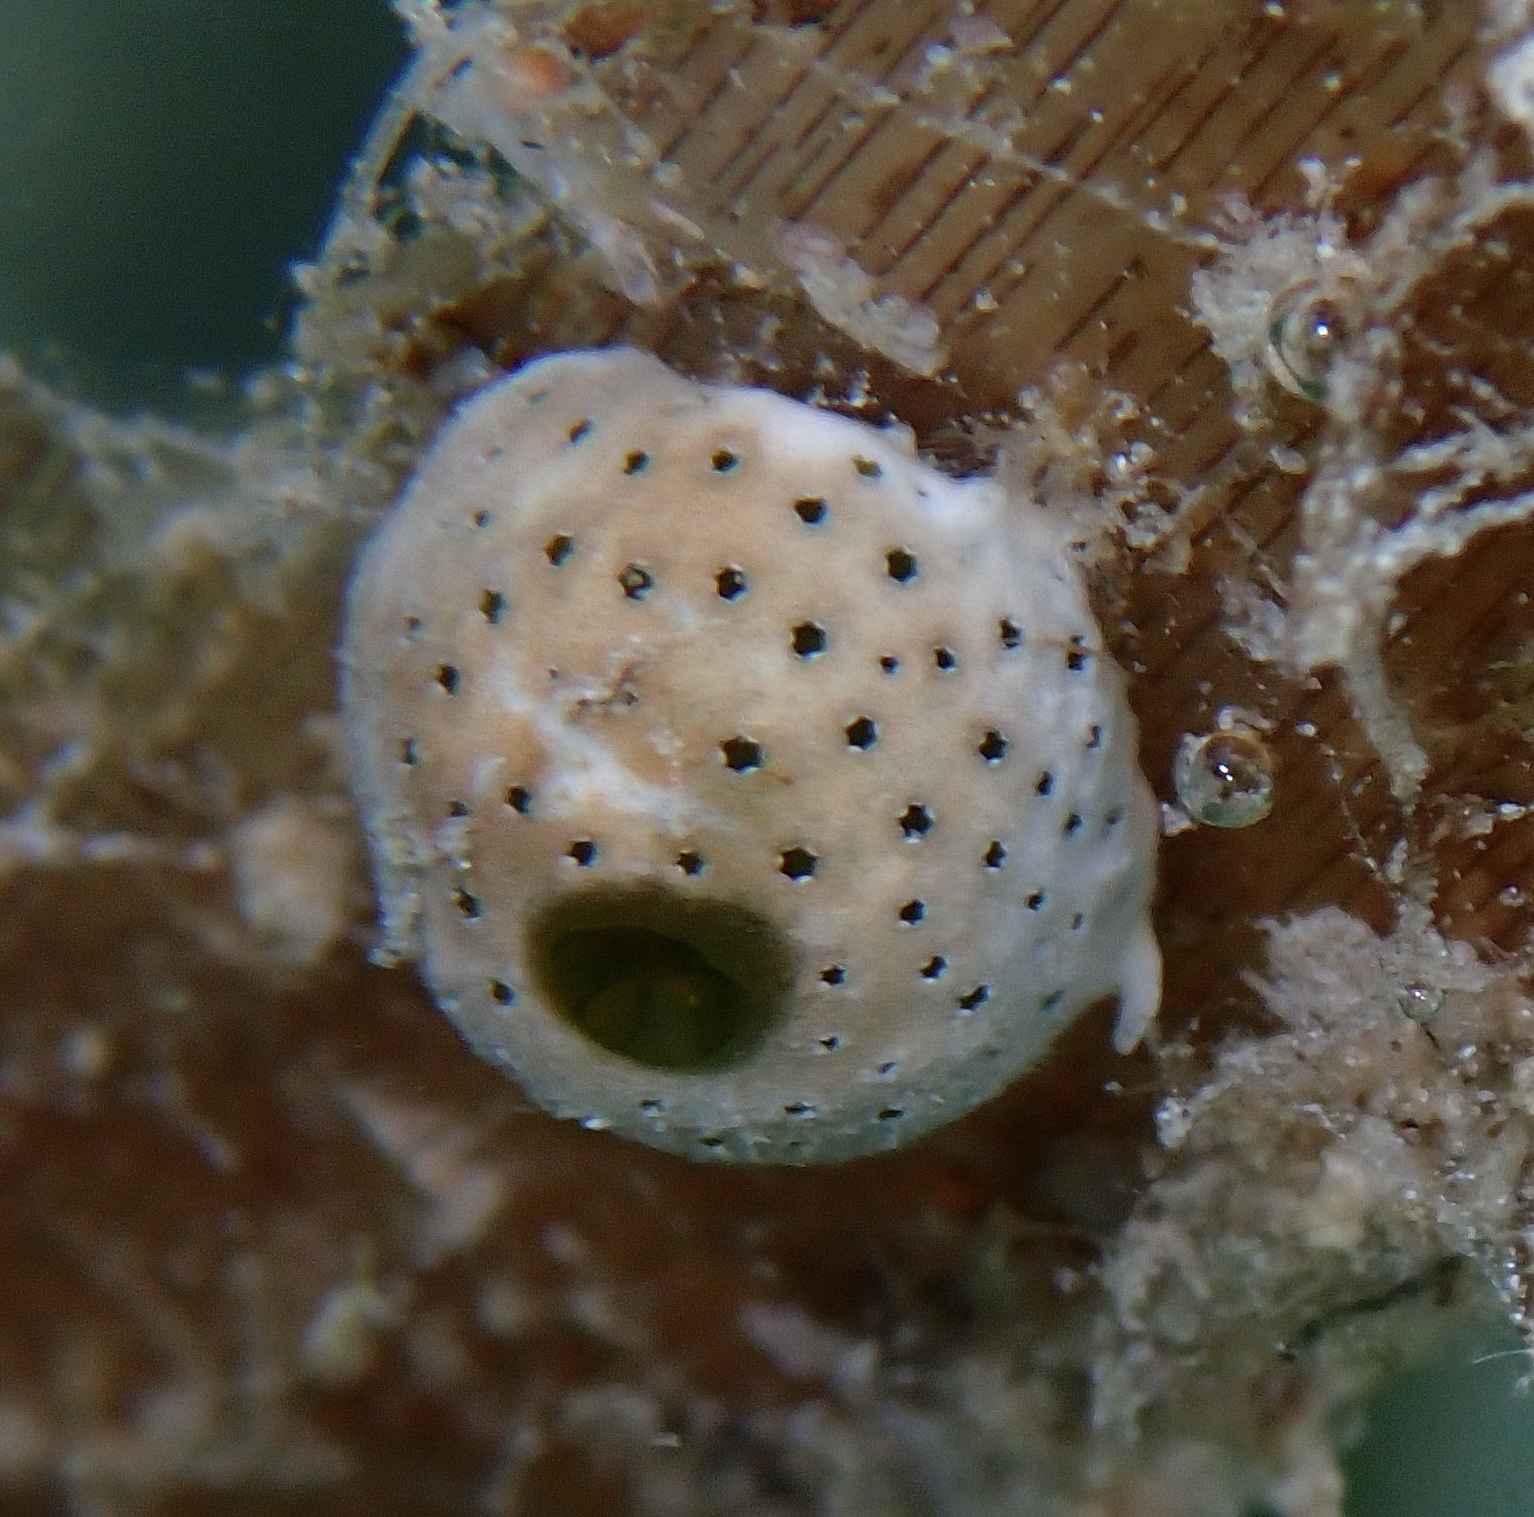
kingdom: Animalia
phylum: Chordata
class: Ascidiacea
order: Aplousobranchia
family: Didemnidae
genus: Didemnum
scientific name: Didemnum molle
